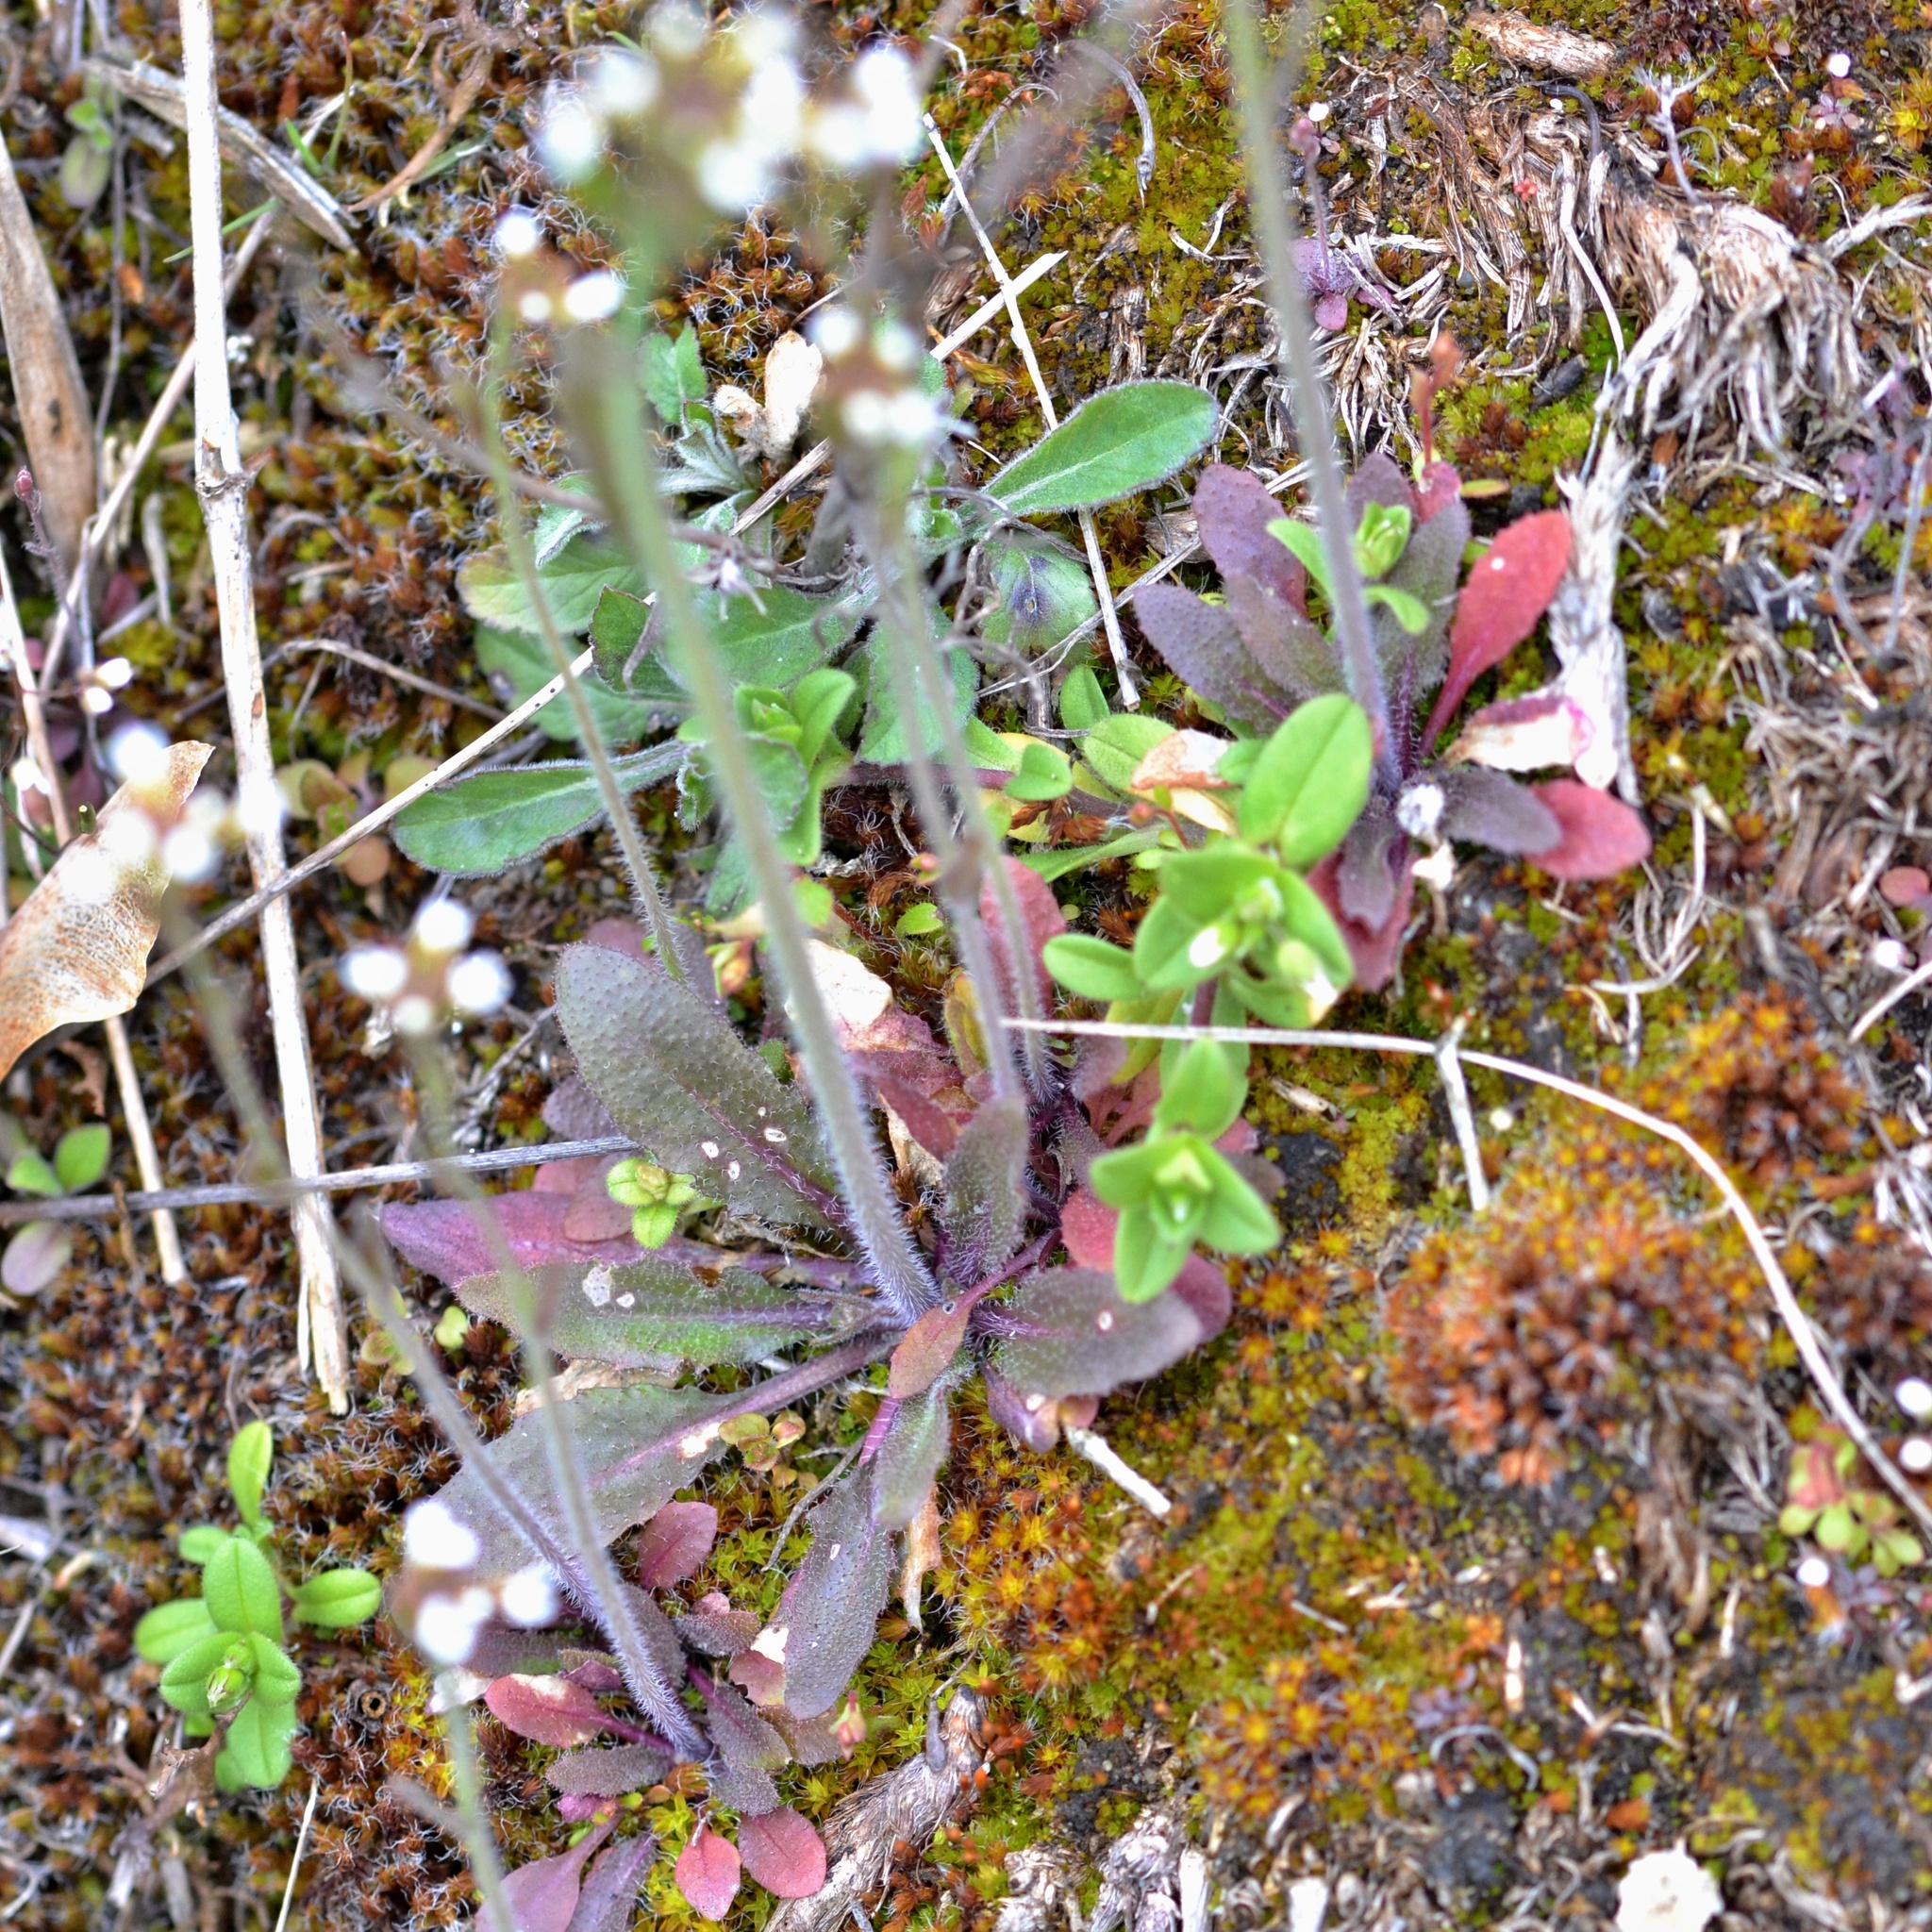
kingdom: Plantae
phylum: Tracheophyta
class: Magnoliopsida
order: Brassicales
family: Brassicaceae
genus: Arabidopsis
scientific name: Arabidopsis thaliana
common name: Thale cress
